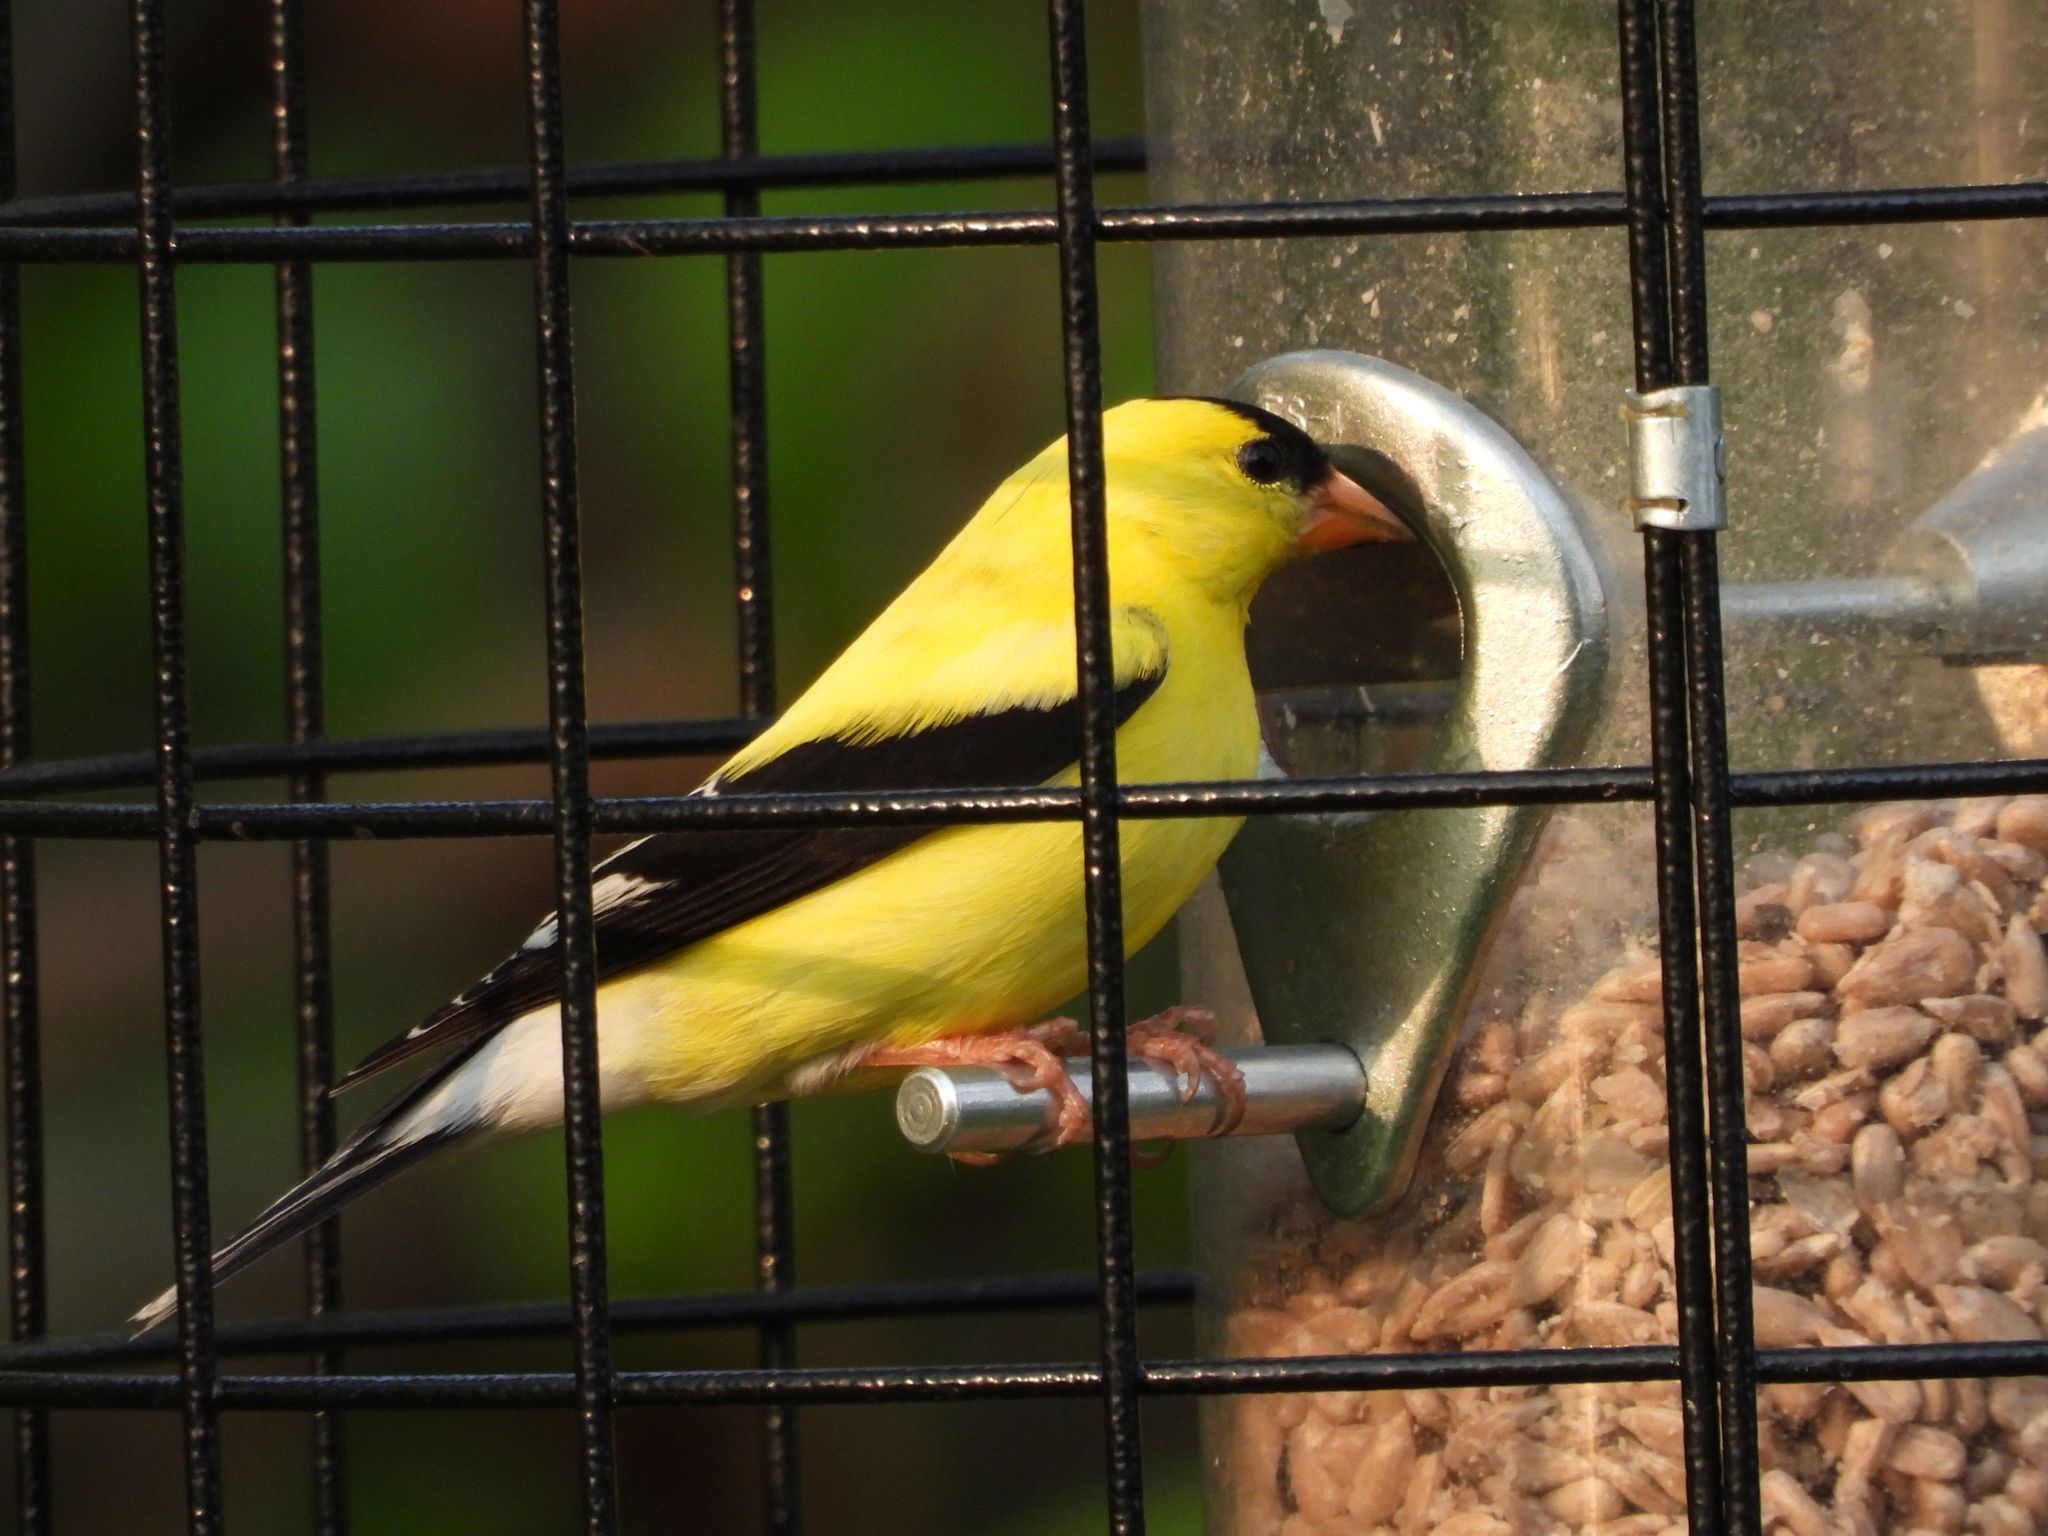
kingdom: Animalia
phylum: Chordata
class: Aves
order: Passeriformes
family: Fringillidae
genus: Spinus
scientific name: Spinus tristis
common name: American goldfinch
